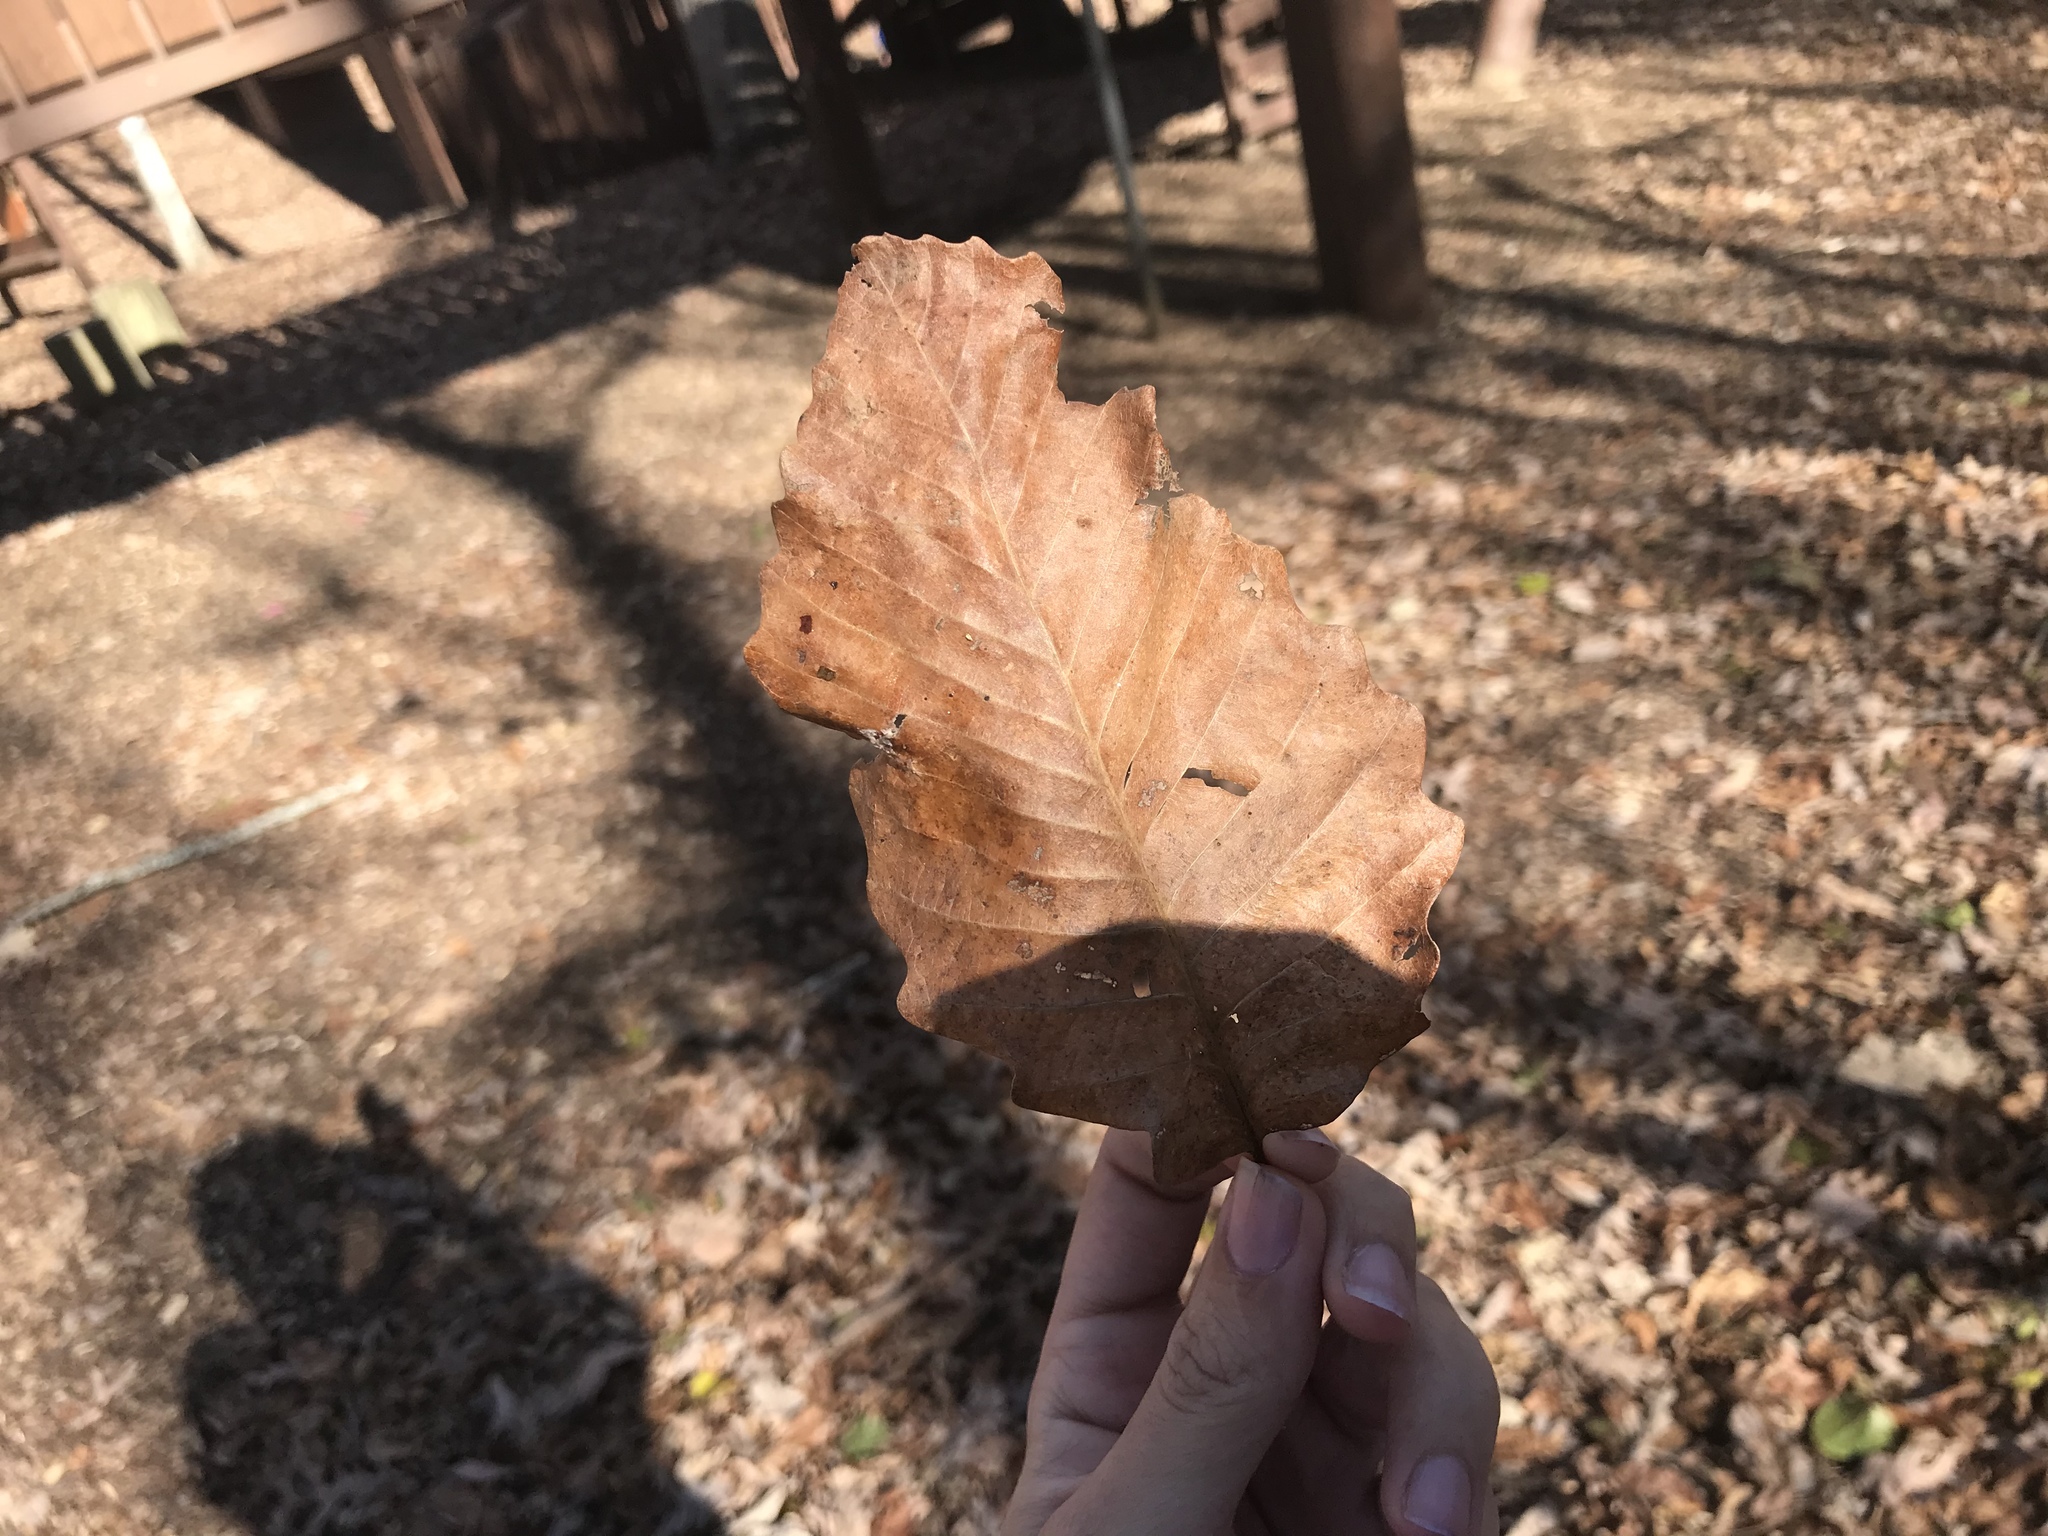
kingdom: Plantae
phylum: Tracheophyta
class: Magnoliopsida
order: Fagales
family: Fagaceae
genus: Quercus
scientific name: Quercus montana
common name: Chestnut oak
